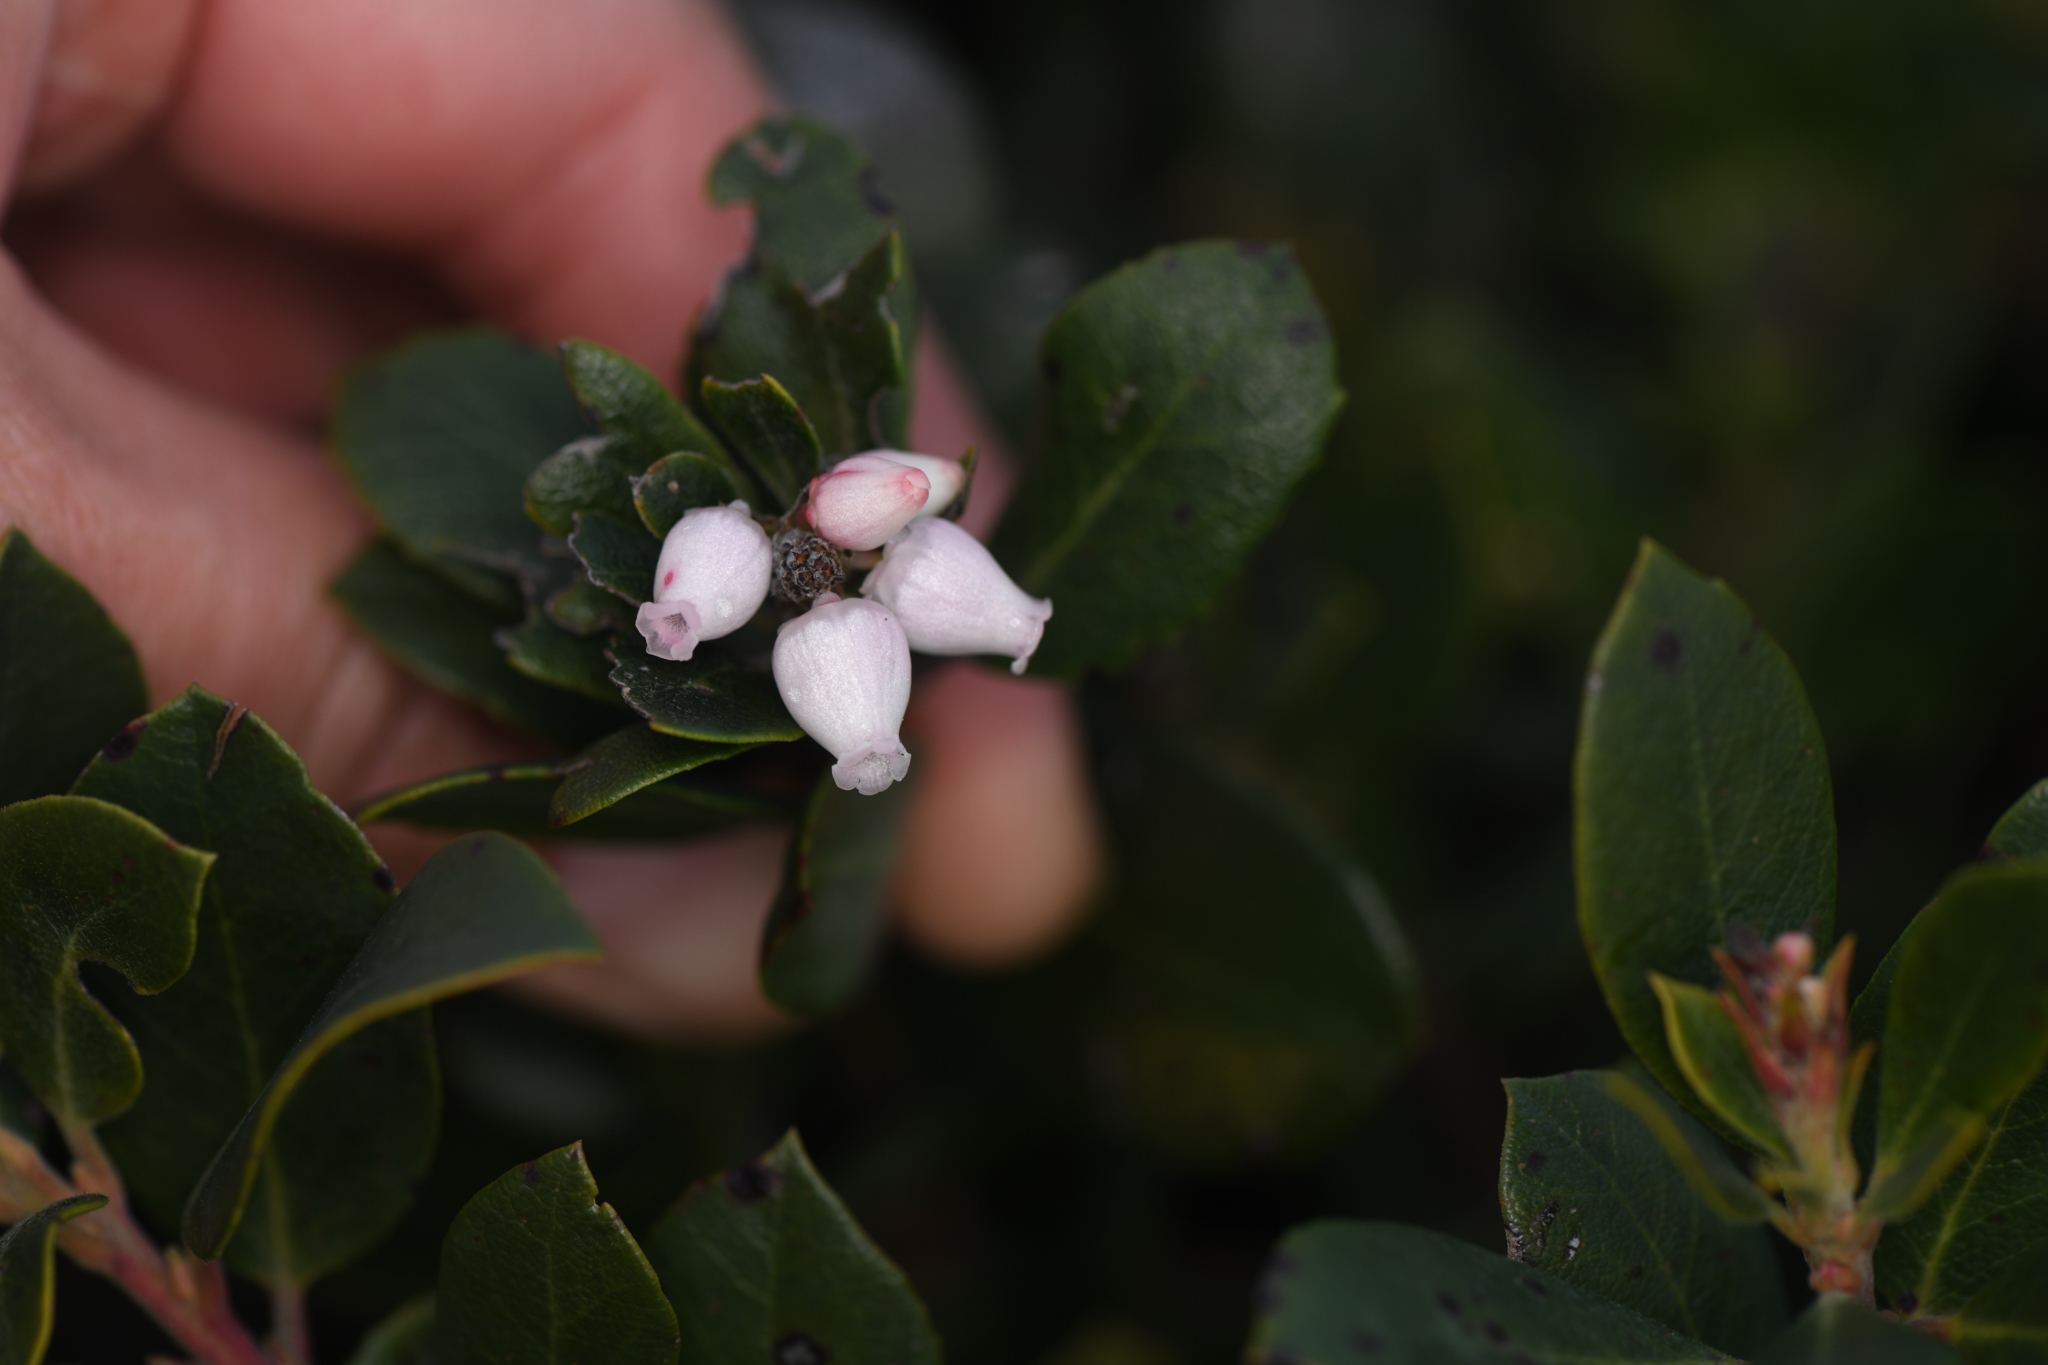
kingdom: Plantae
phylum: Tracheophyta
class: Magnoliopsida
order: Ericales
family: Ericaceae
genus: Arctostaphylos
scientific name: Arctostaphylos pacifica
